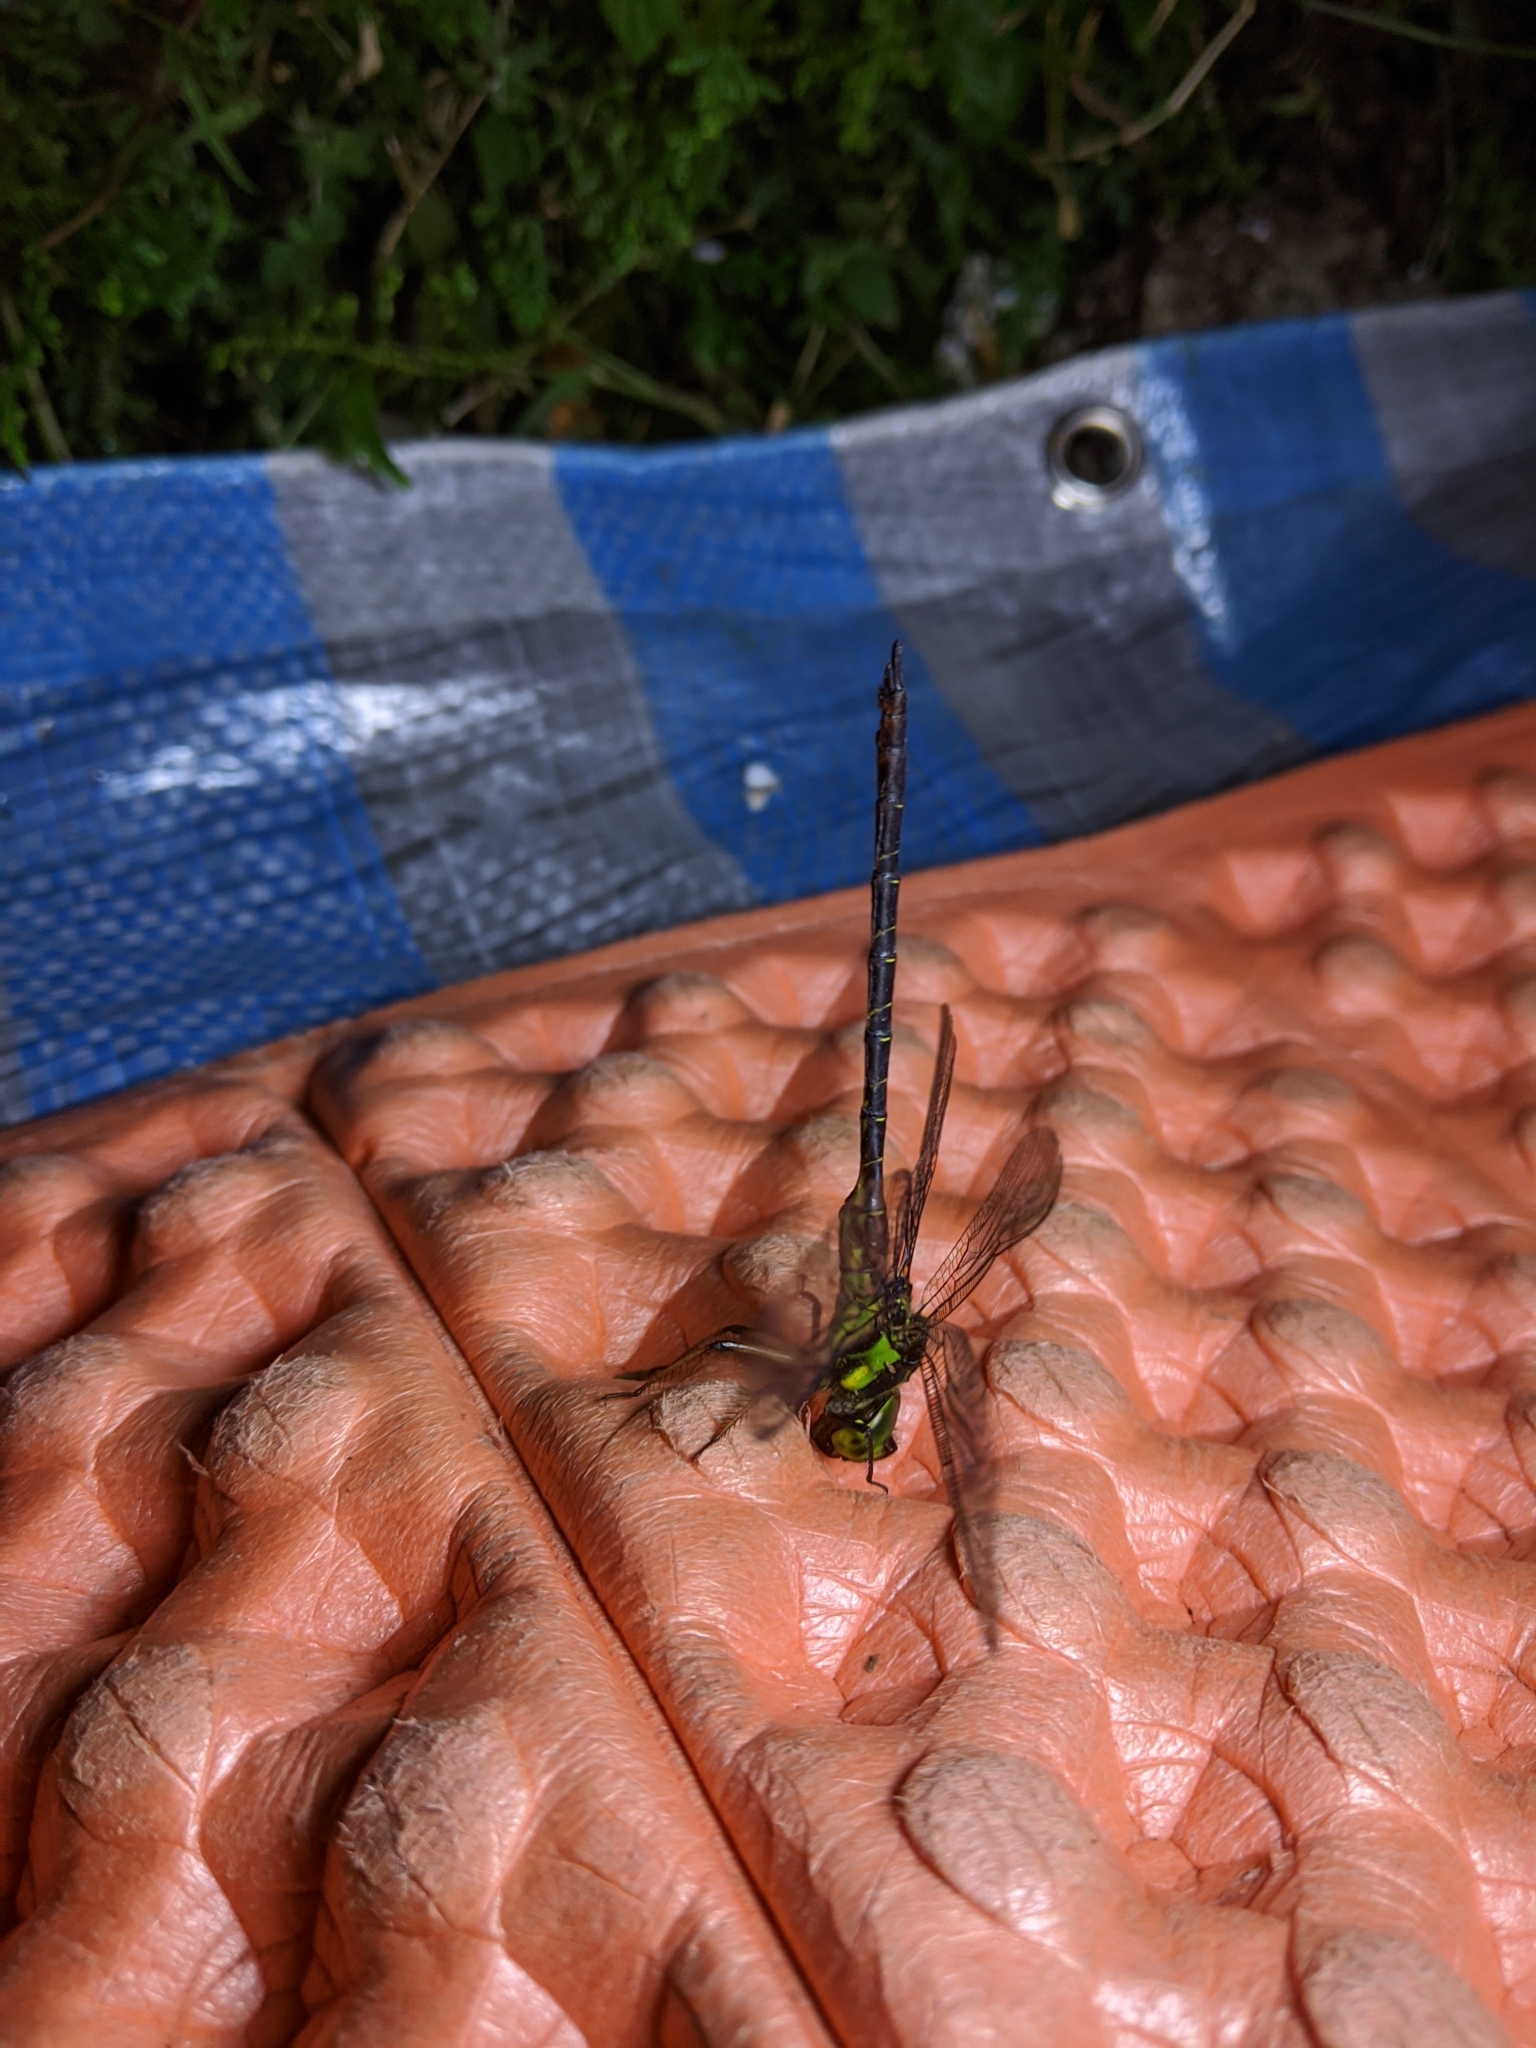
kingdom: Animalia
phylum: Arthropoda
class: Insecta
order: Odonata
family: Aeshnidae
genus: Cephalaeschna
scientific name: Cephalaeschna risi
